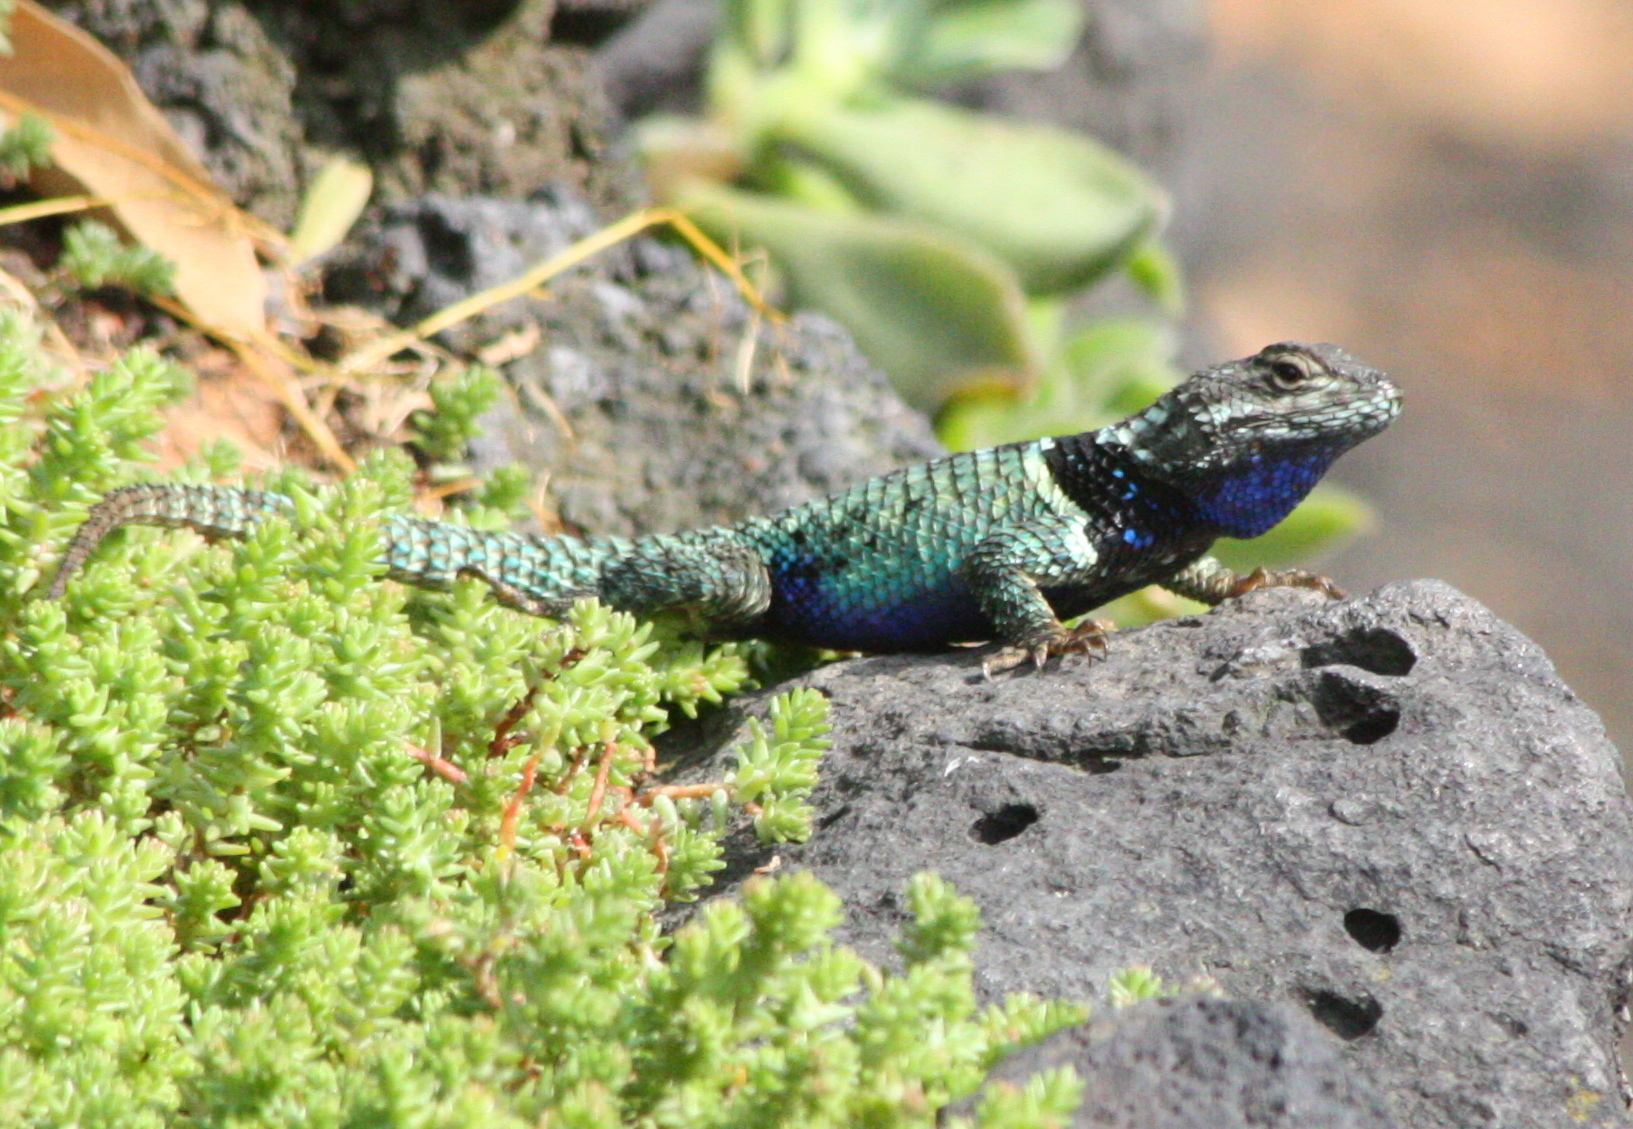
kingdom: Animalia
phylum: Chordata
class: Squamata
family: Phrynosomatidae
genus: Sceloporus
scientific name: Sceloporus torquatus
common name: Central plateau torquate lizard [melanogaster]
